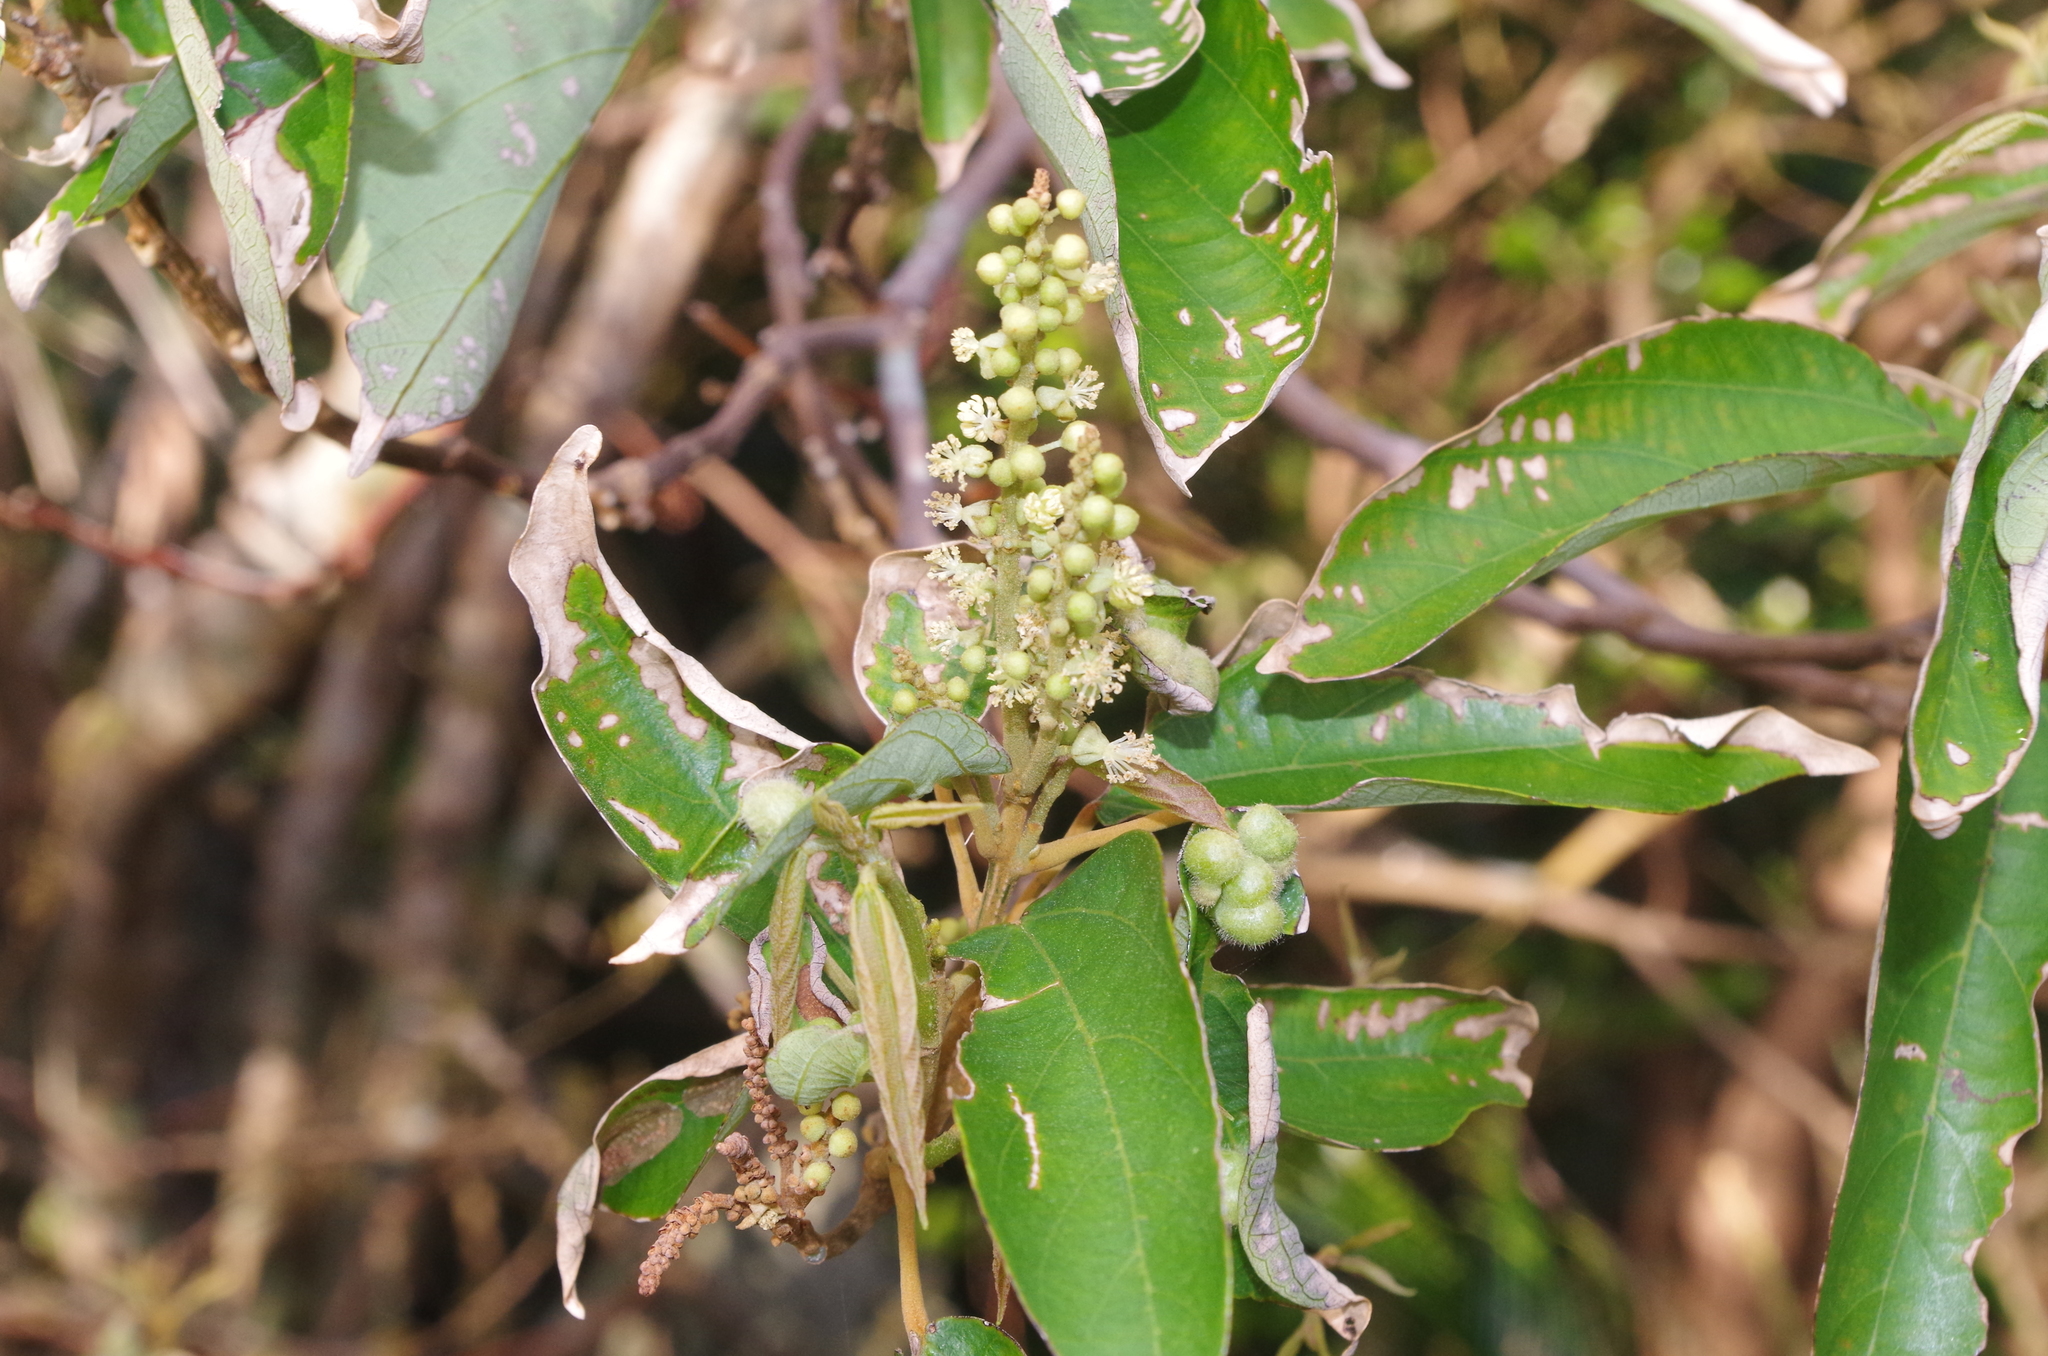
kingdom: Plantae
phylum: Tracheophyta
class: Magnoliopsida
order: Malpighiales
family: Euphorbiaceae
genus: Mallotus
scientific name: Mallotus philippensis
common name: Kamala tree
